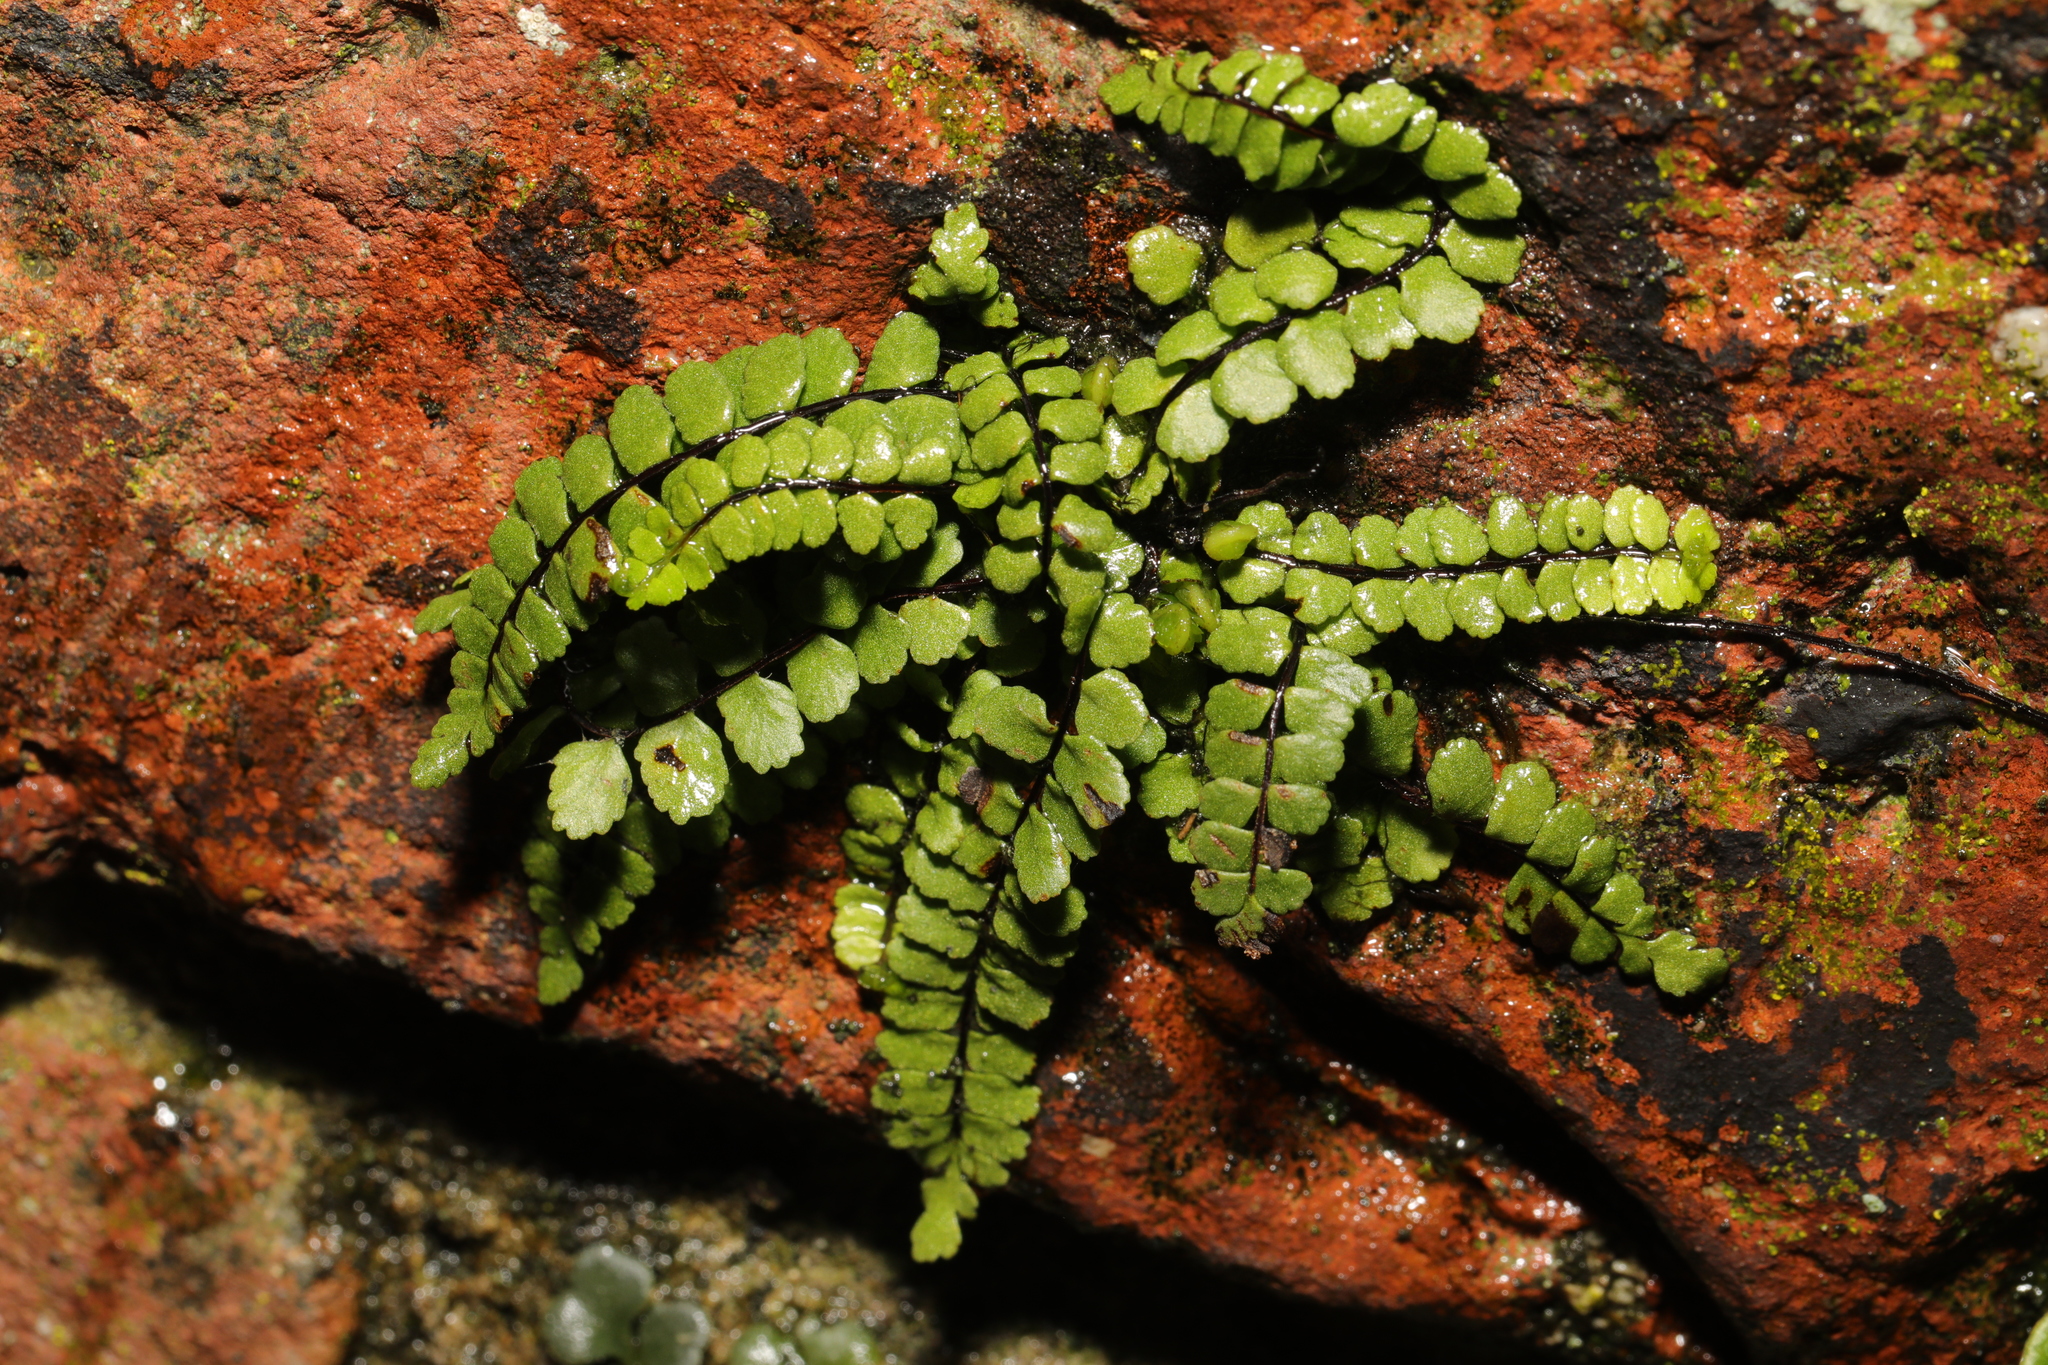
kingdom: Plantae
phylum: Tracheophyta
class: Polypodiopsida
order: Polypodiales
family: Aspleniaceae
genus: Asplenium
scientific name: Asplenium trichomanes
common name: Maidenhair spleenwort
